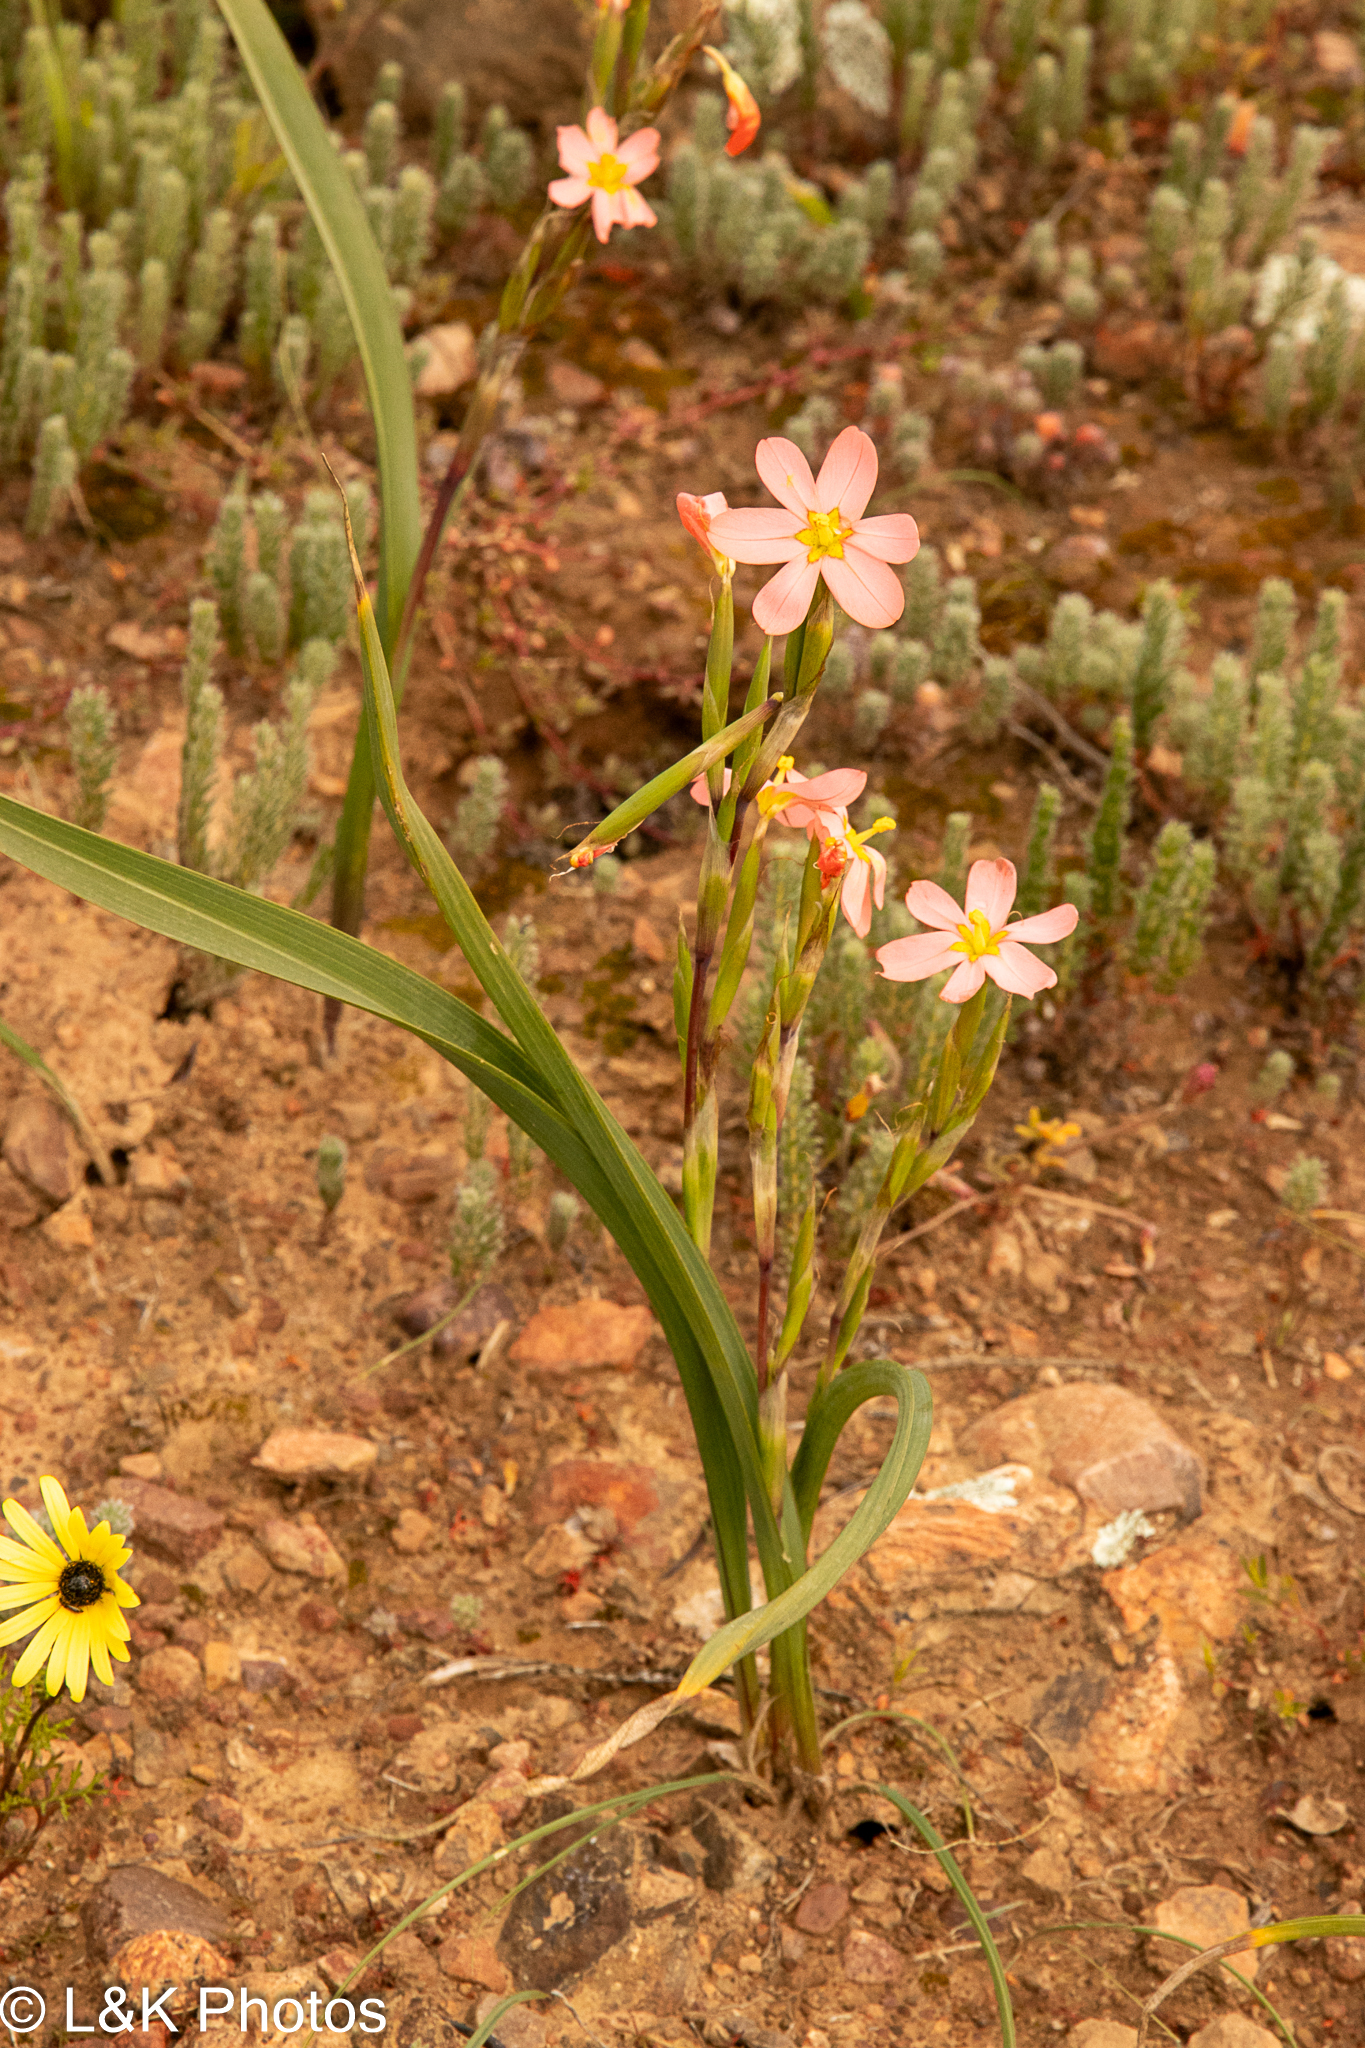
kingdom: Plantae
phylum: Tracheophyta
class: Liliopsida
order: Asparagales
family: Iridaceae
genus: Moraea
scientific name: Moraea bifida
